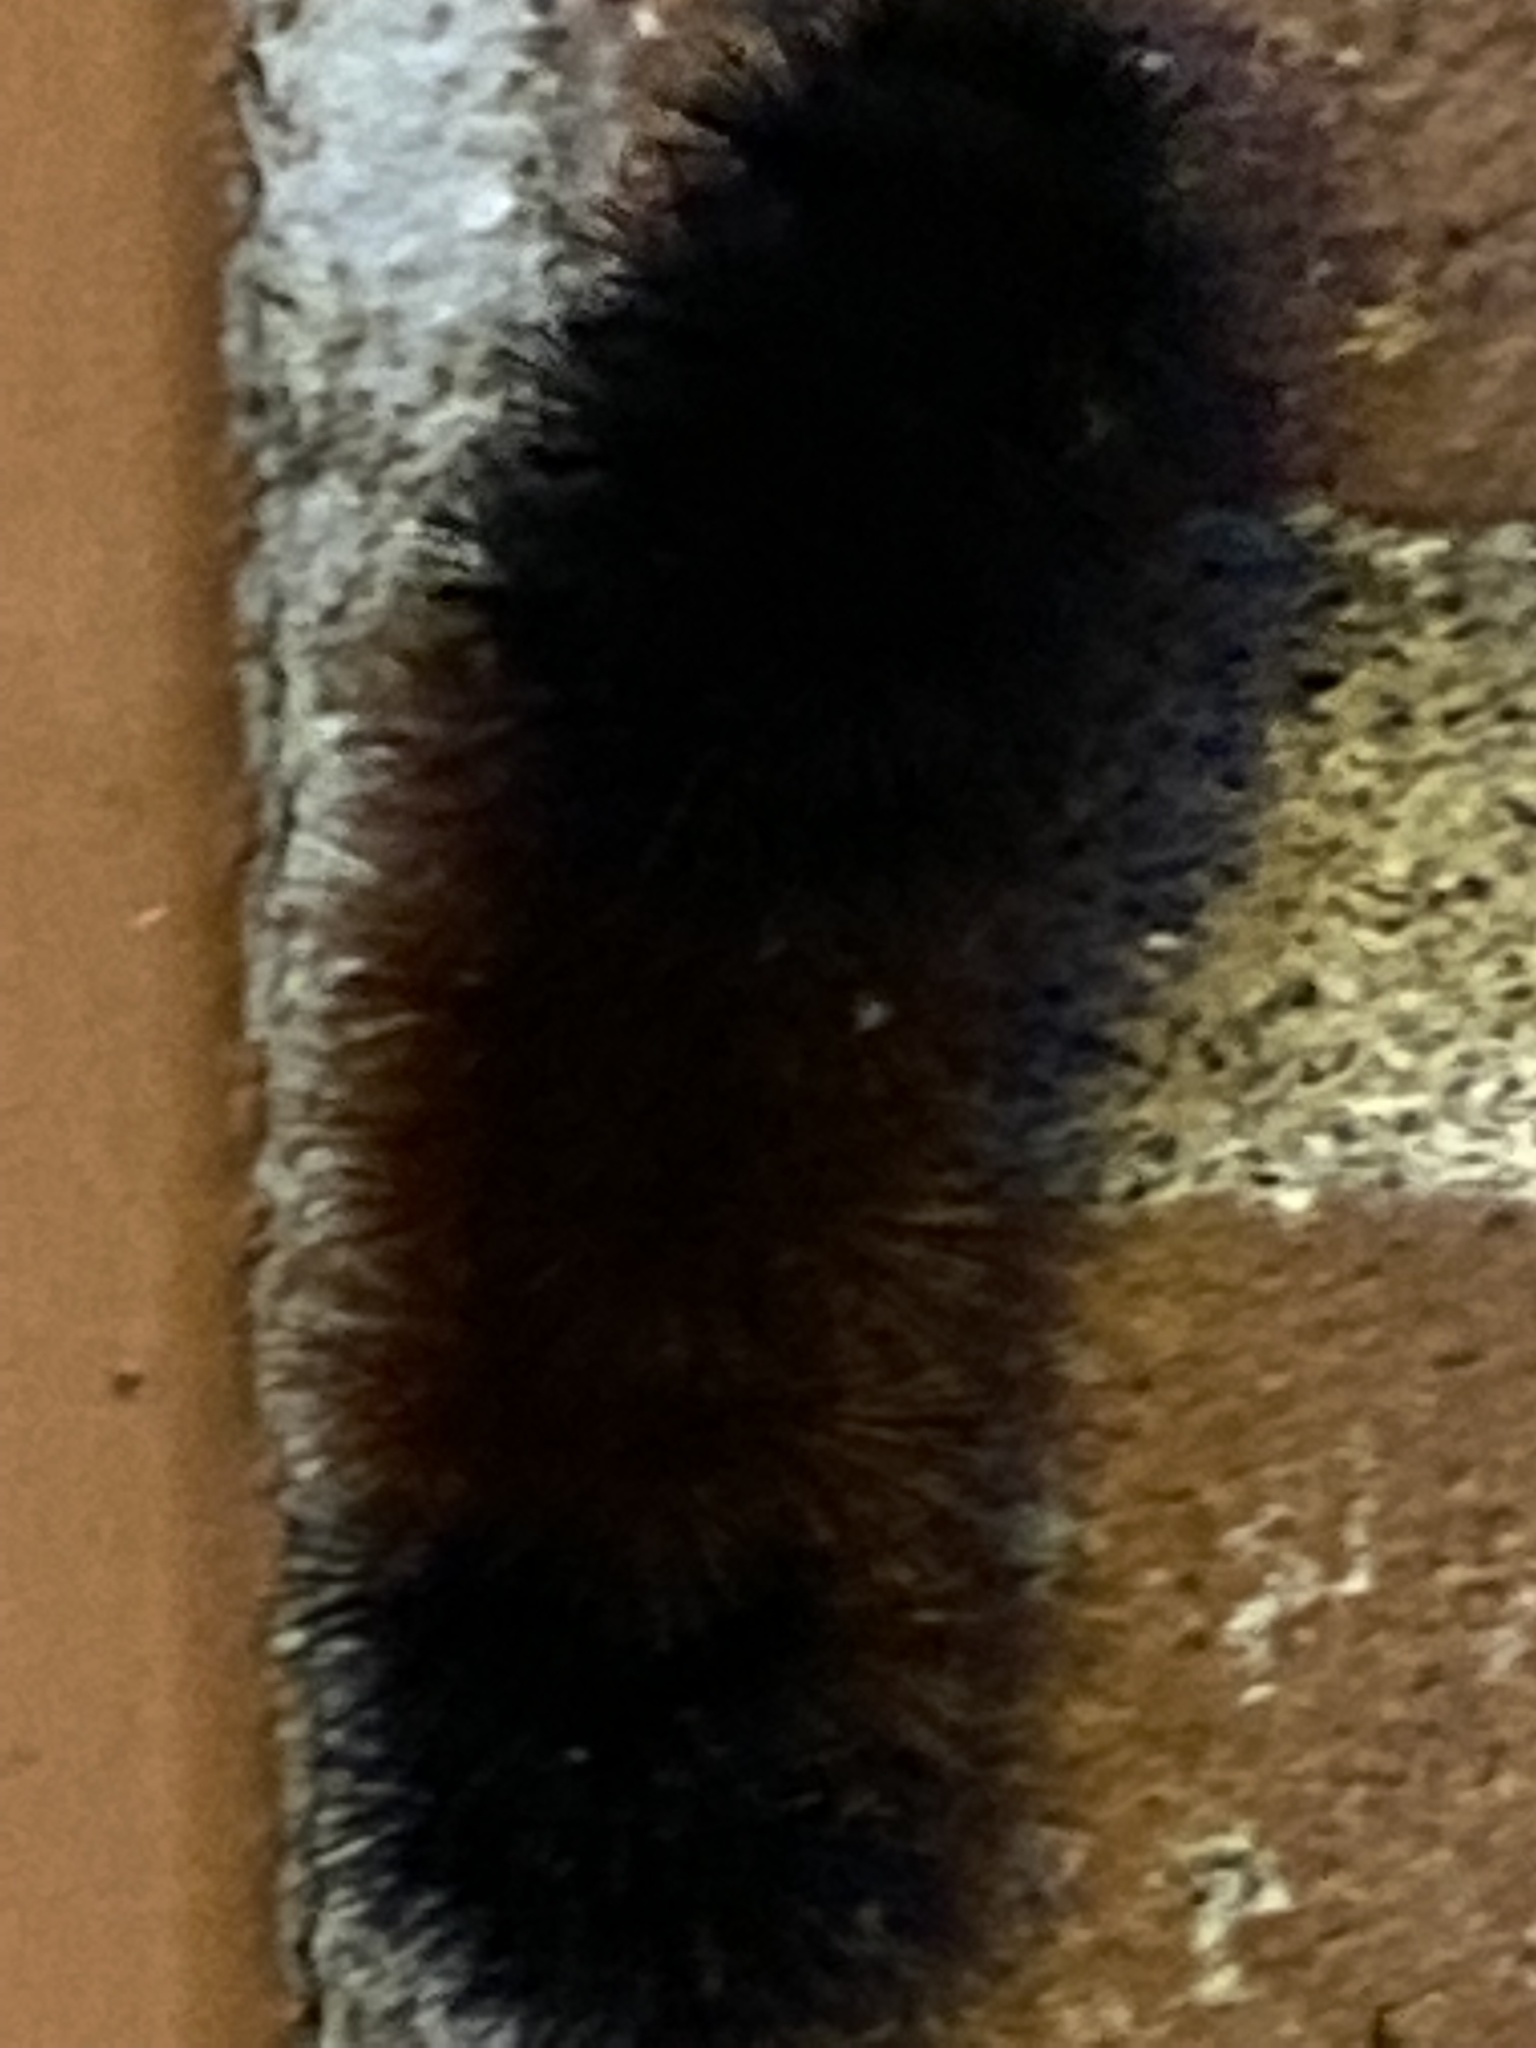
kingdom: Animalia
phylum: Arthropoda
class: Insecta
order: Lepidoptera
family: Erebidae
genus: Pyrrharctia
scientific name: Pyrrharctia isabella
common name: Isabella tiger moth
